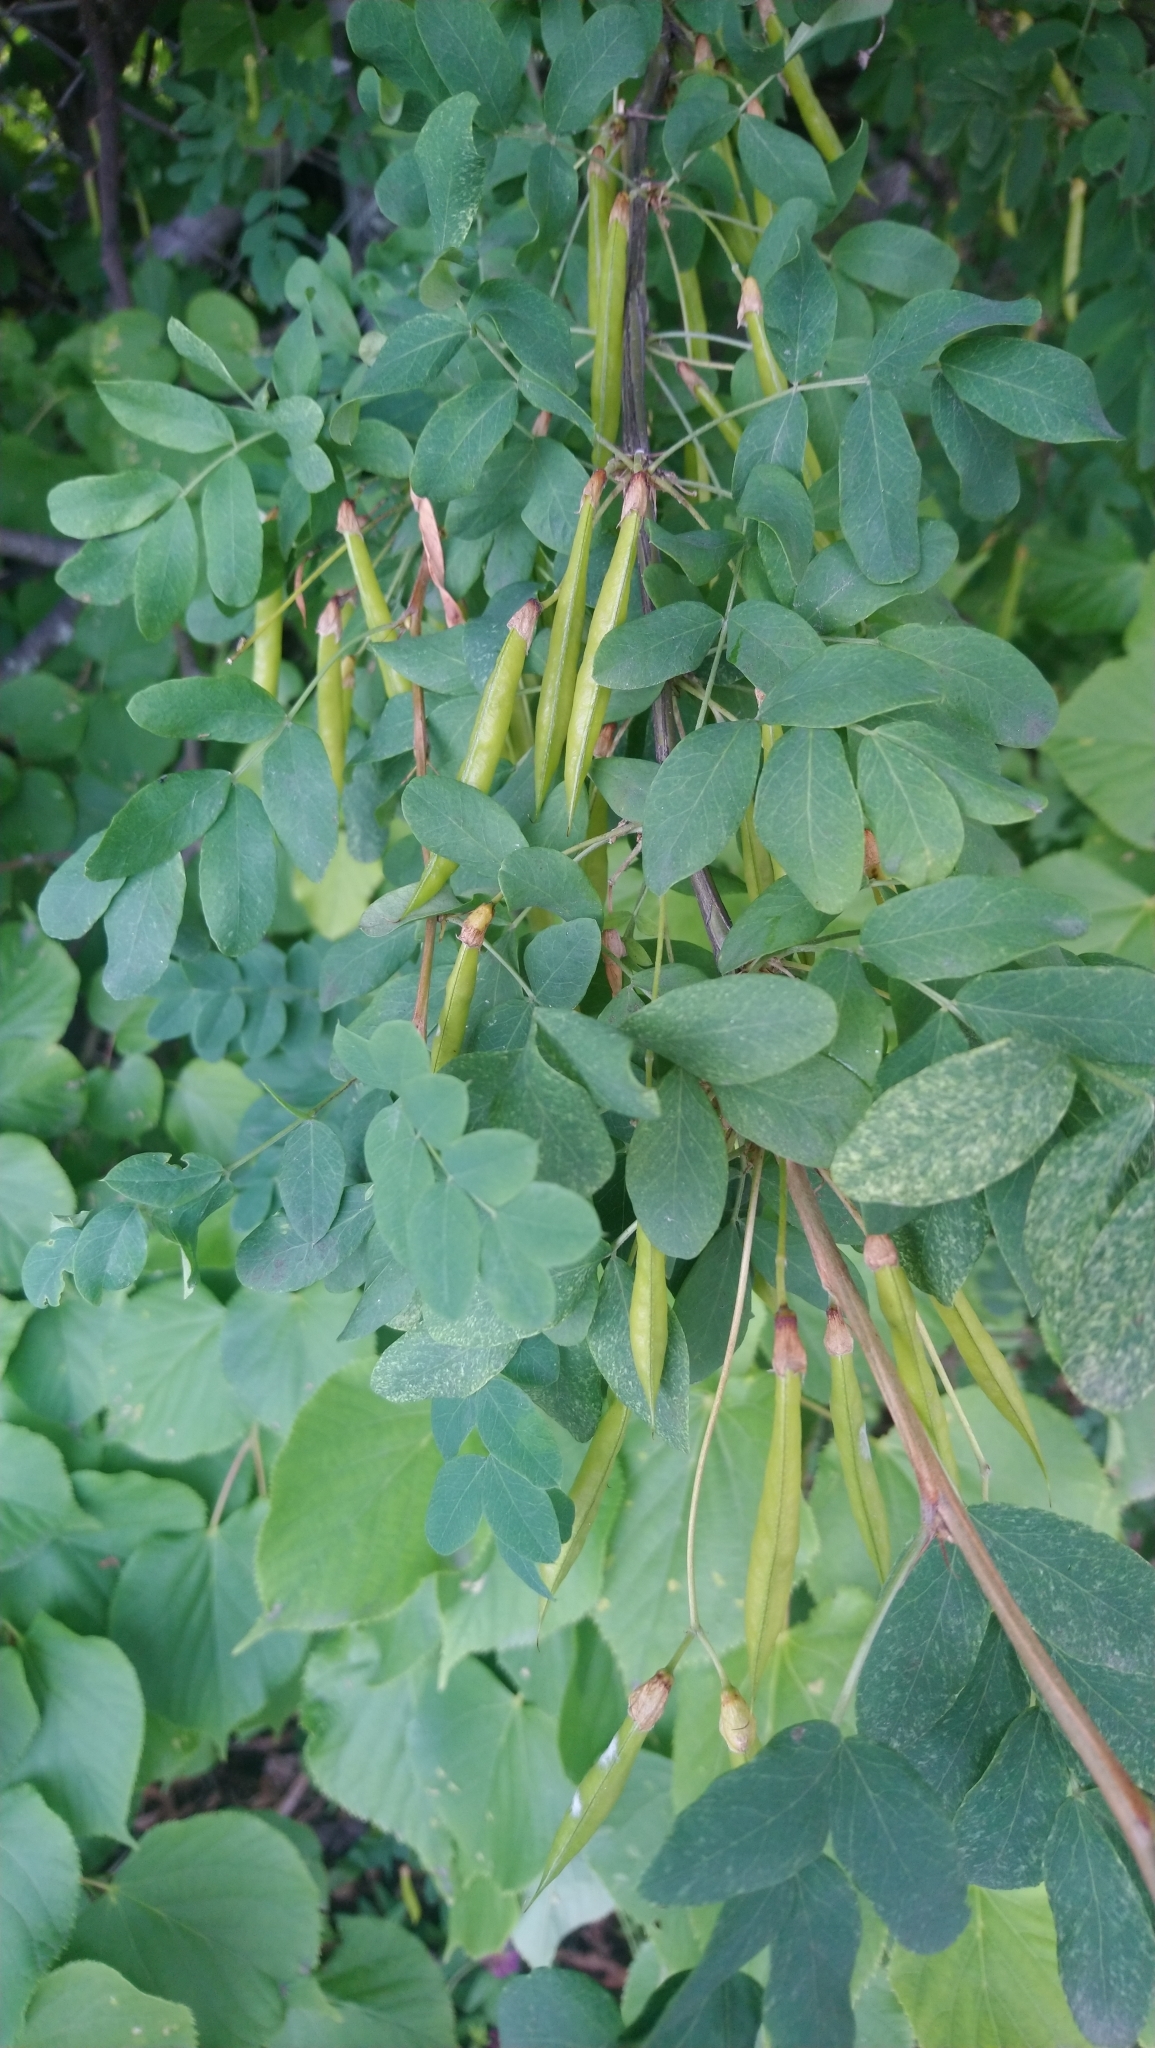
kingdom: Plantae
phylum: Tracheophyta
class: Magnoliopsida
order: Fabales
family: Fabaceae
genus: Caragana
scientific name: Caragana arborescens
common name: Siberian peashrub
